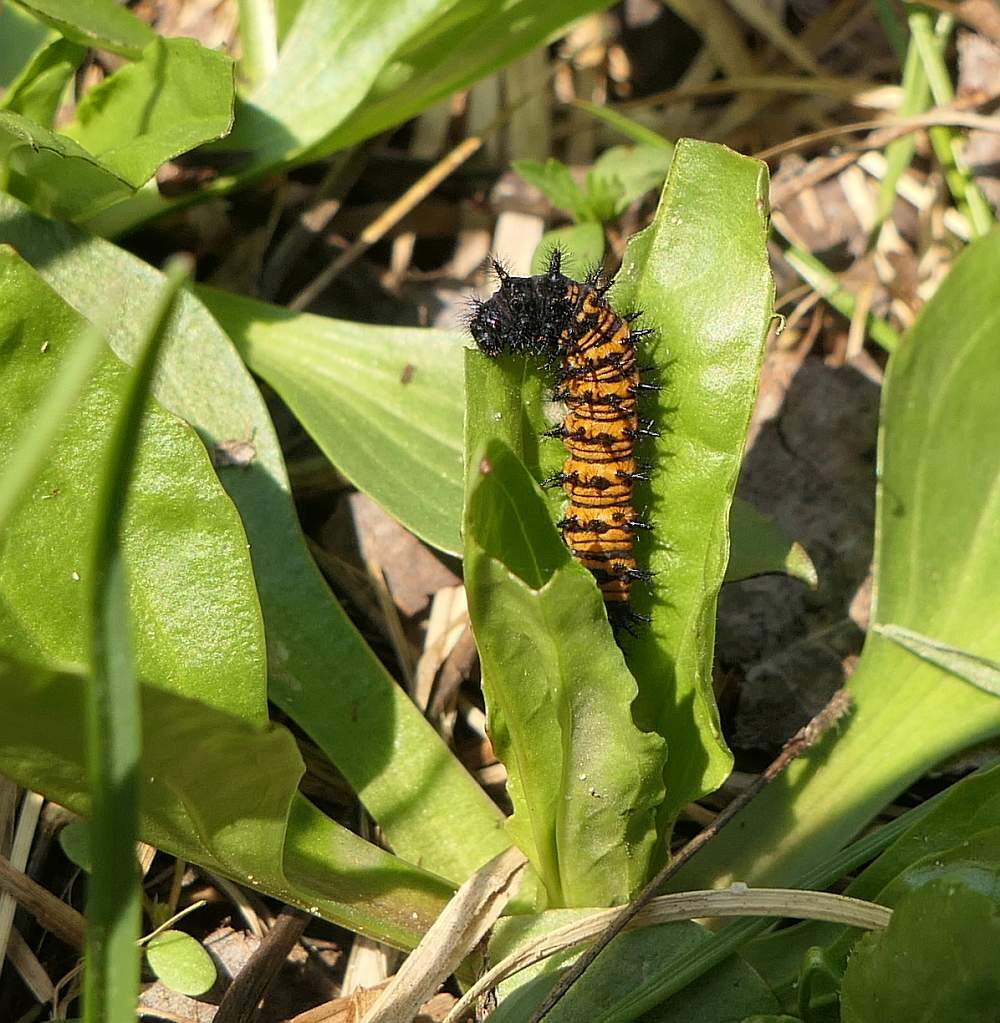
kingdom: Animalia
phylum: Arthropoda
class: Insecta
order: Lepidoptera
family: Nymphalidae
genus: Euphydryas
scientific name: Euphydryas phaeton
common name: Baltimore checkerspot
